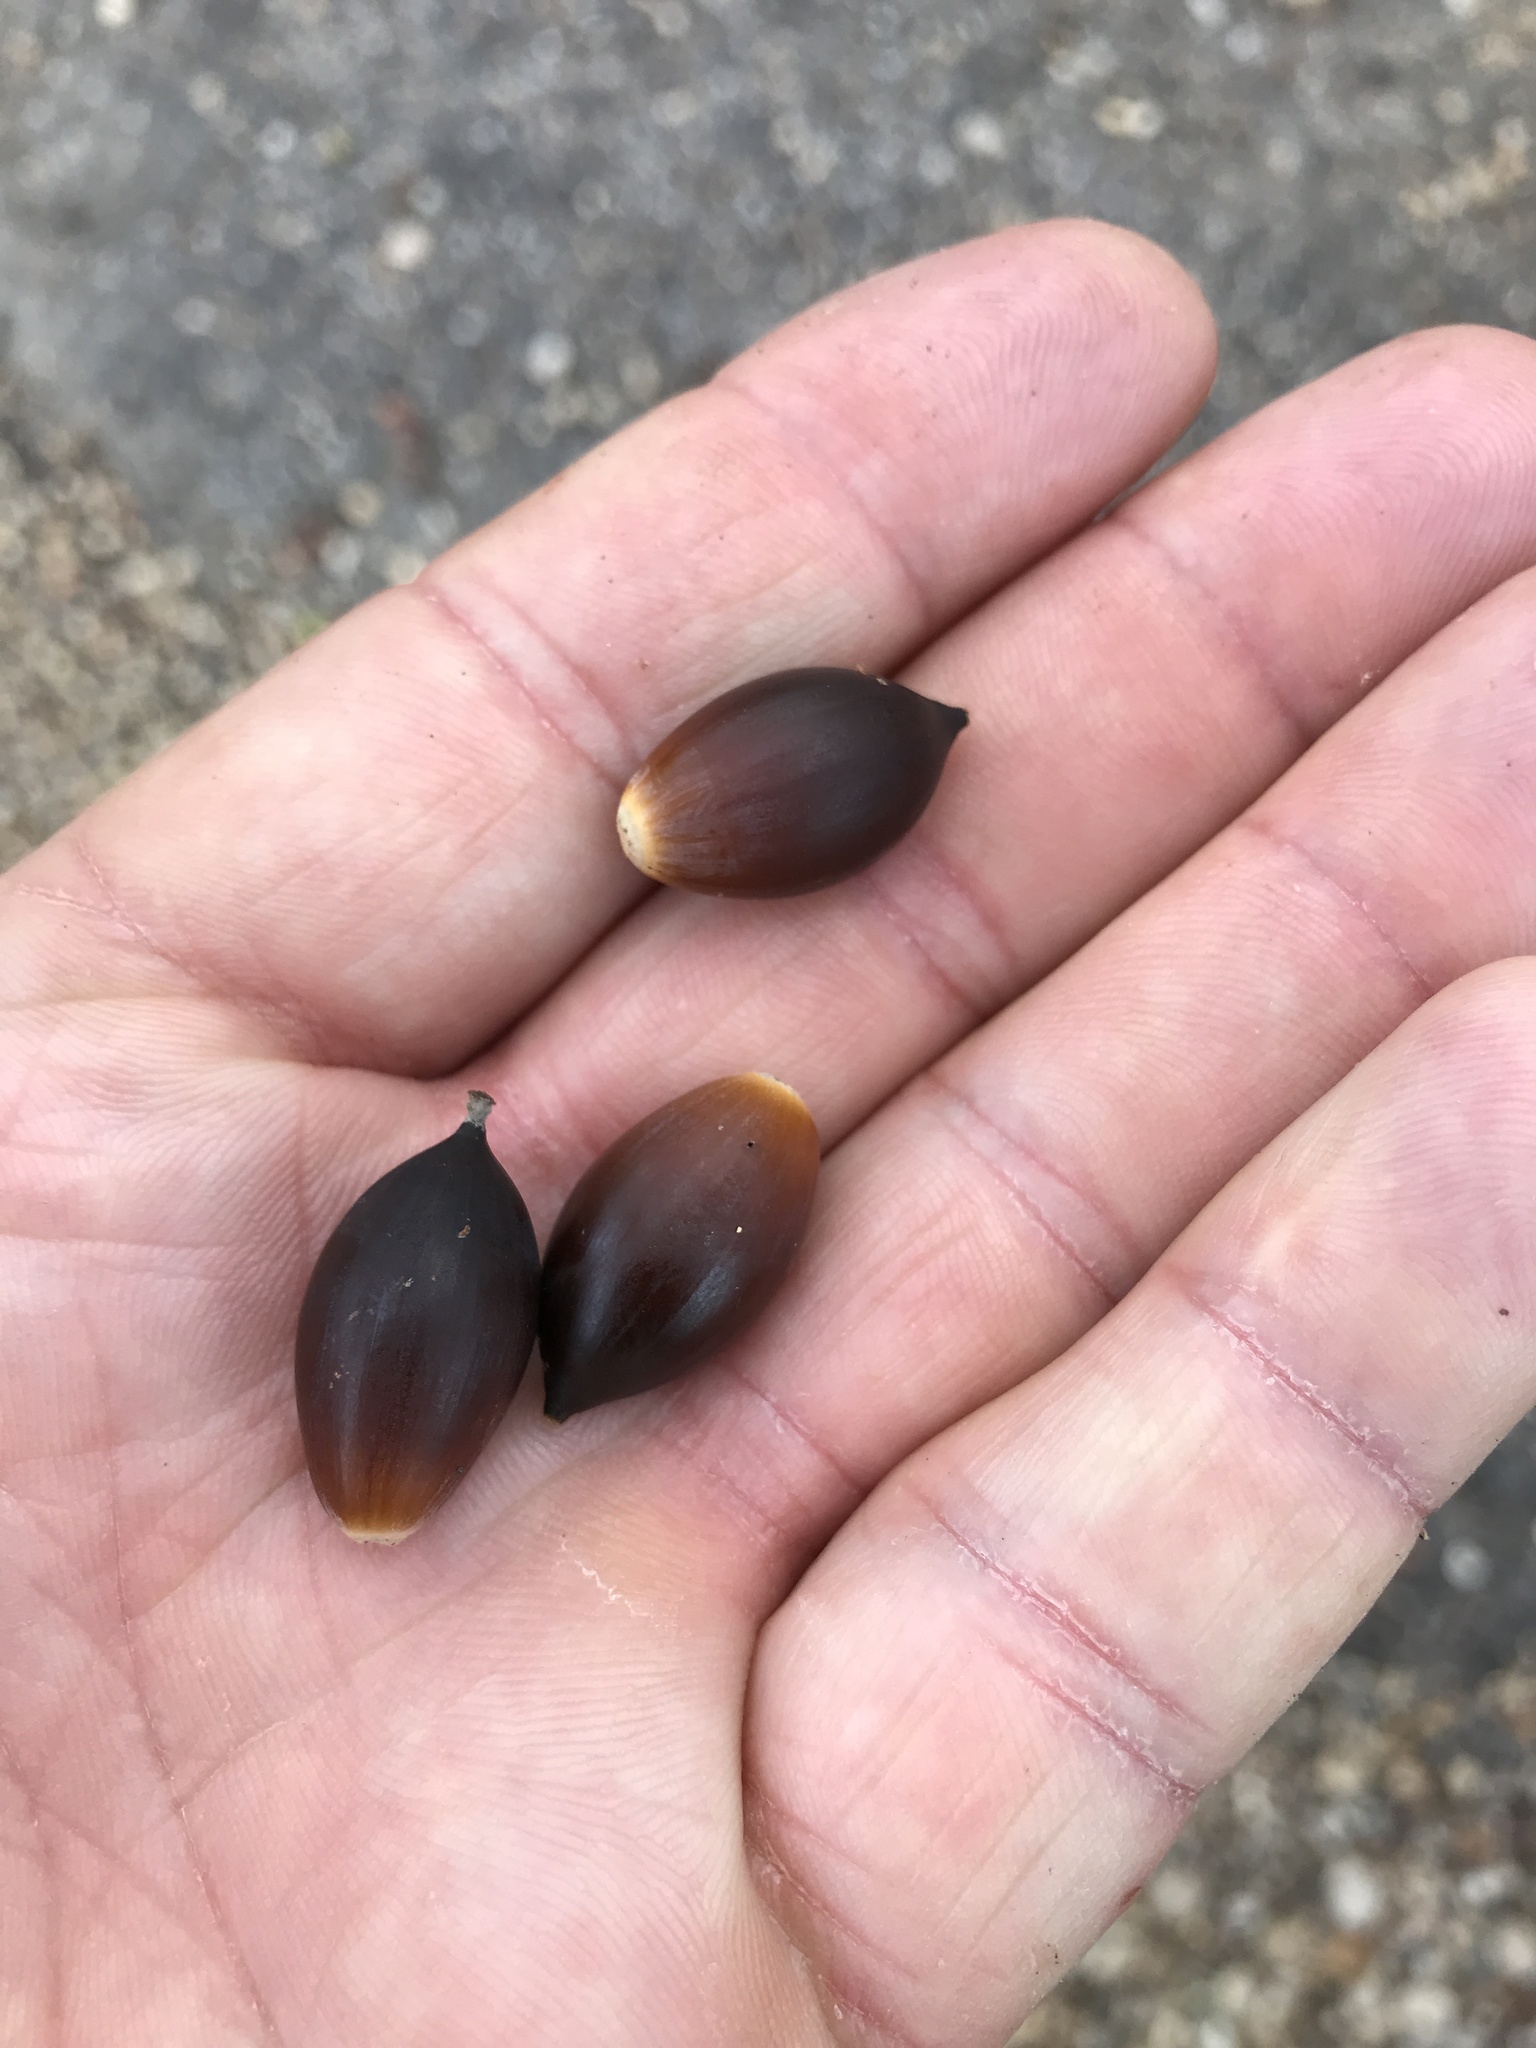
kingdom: Plantae
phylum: Tracheophyta
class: Magnoliopsida
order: Fagales
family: Fagaceae
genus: Quercus
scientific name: Quercus fusiformis
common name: Texas live oak
